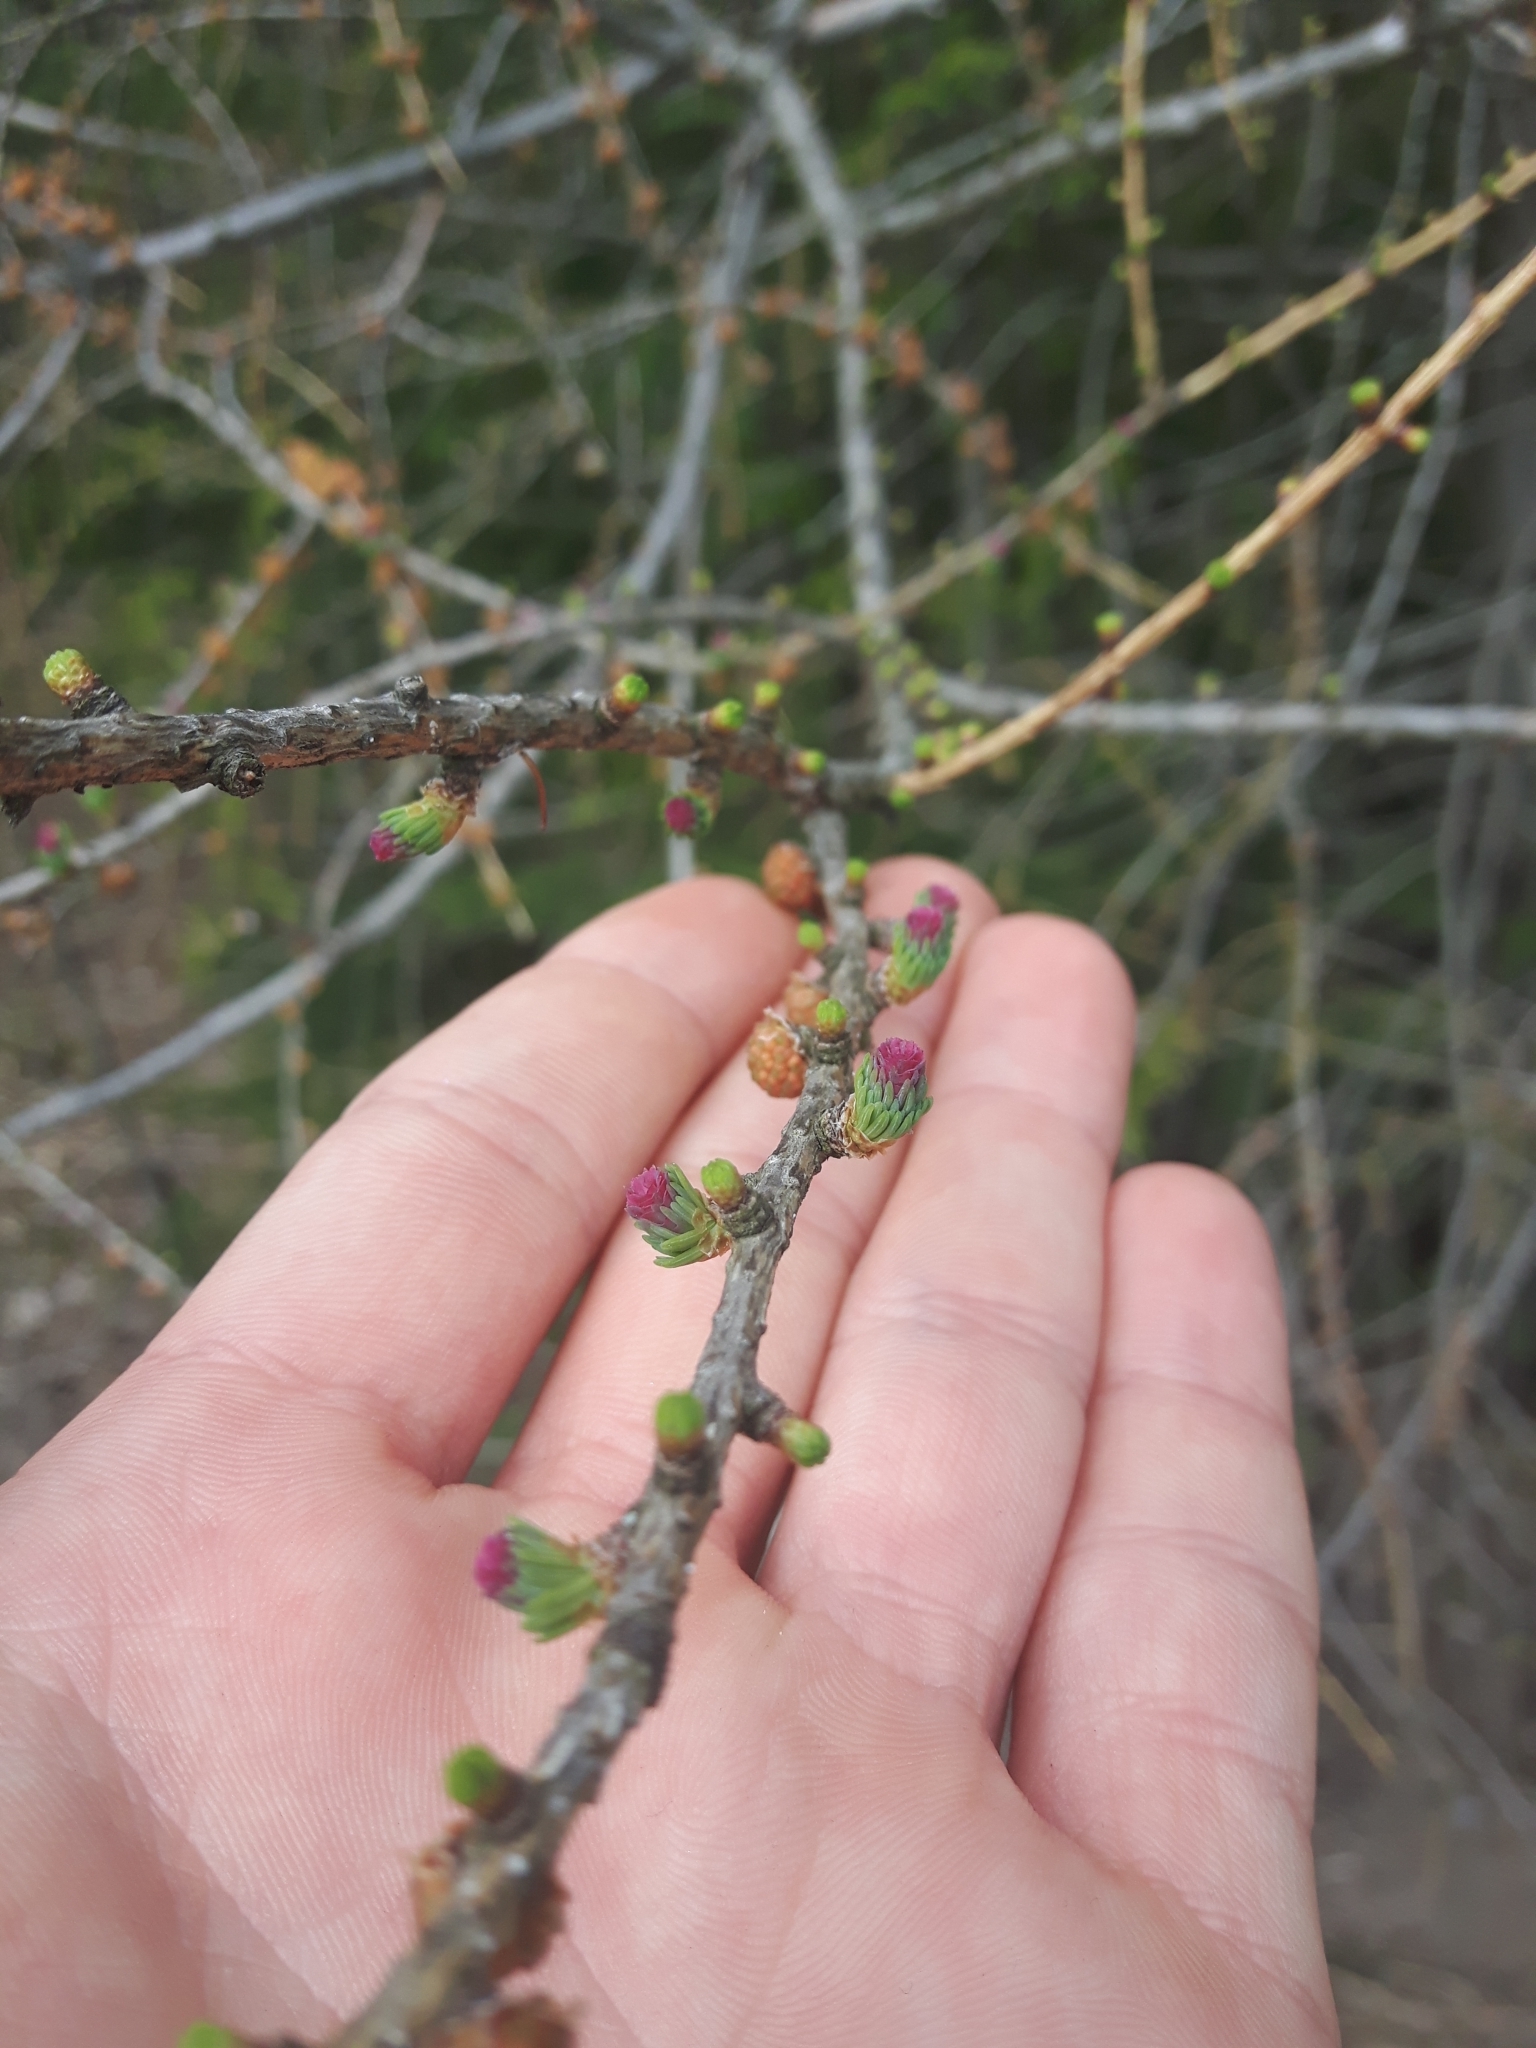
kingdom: Plantae
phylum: Tracheophyta
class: Pinopsida
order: Pinales
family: Pinaceae
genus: Larix
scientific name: Larix laricina
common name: American larch
